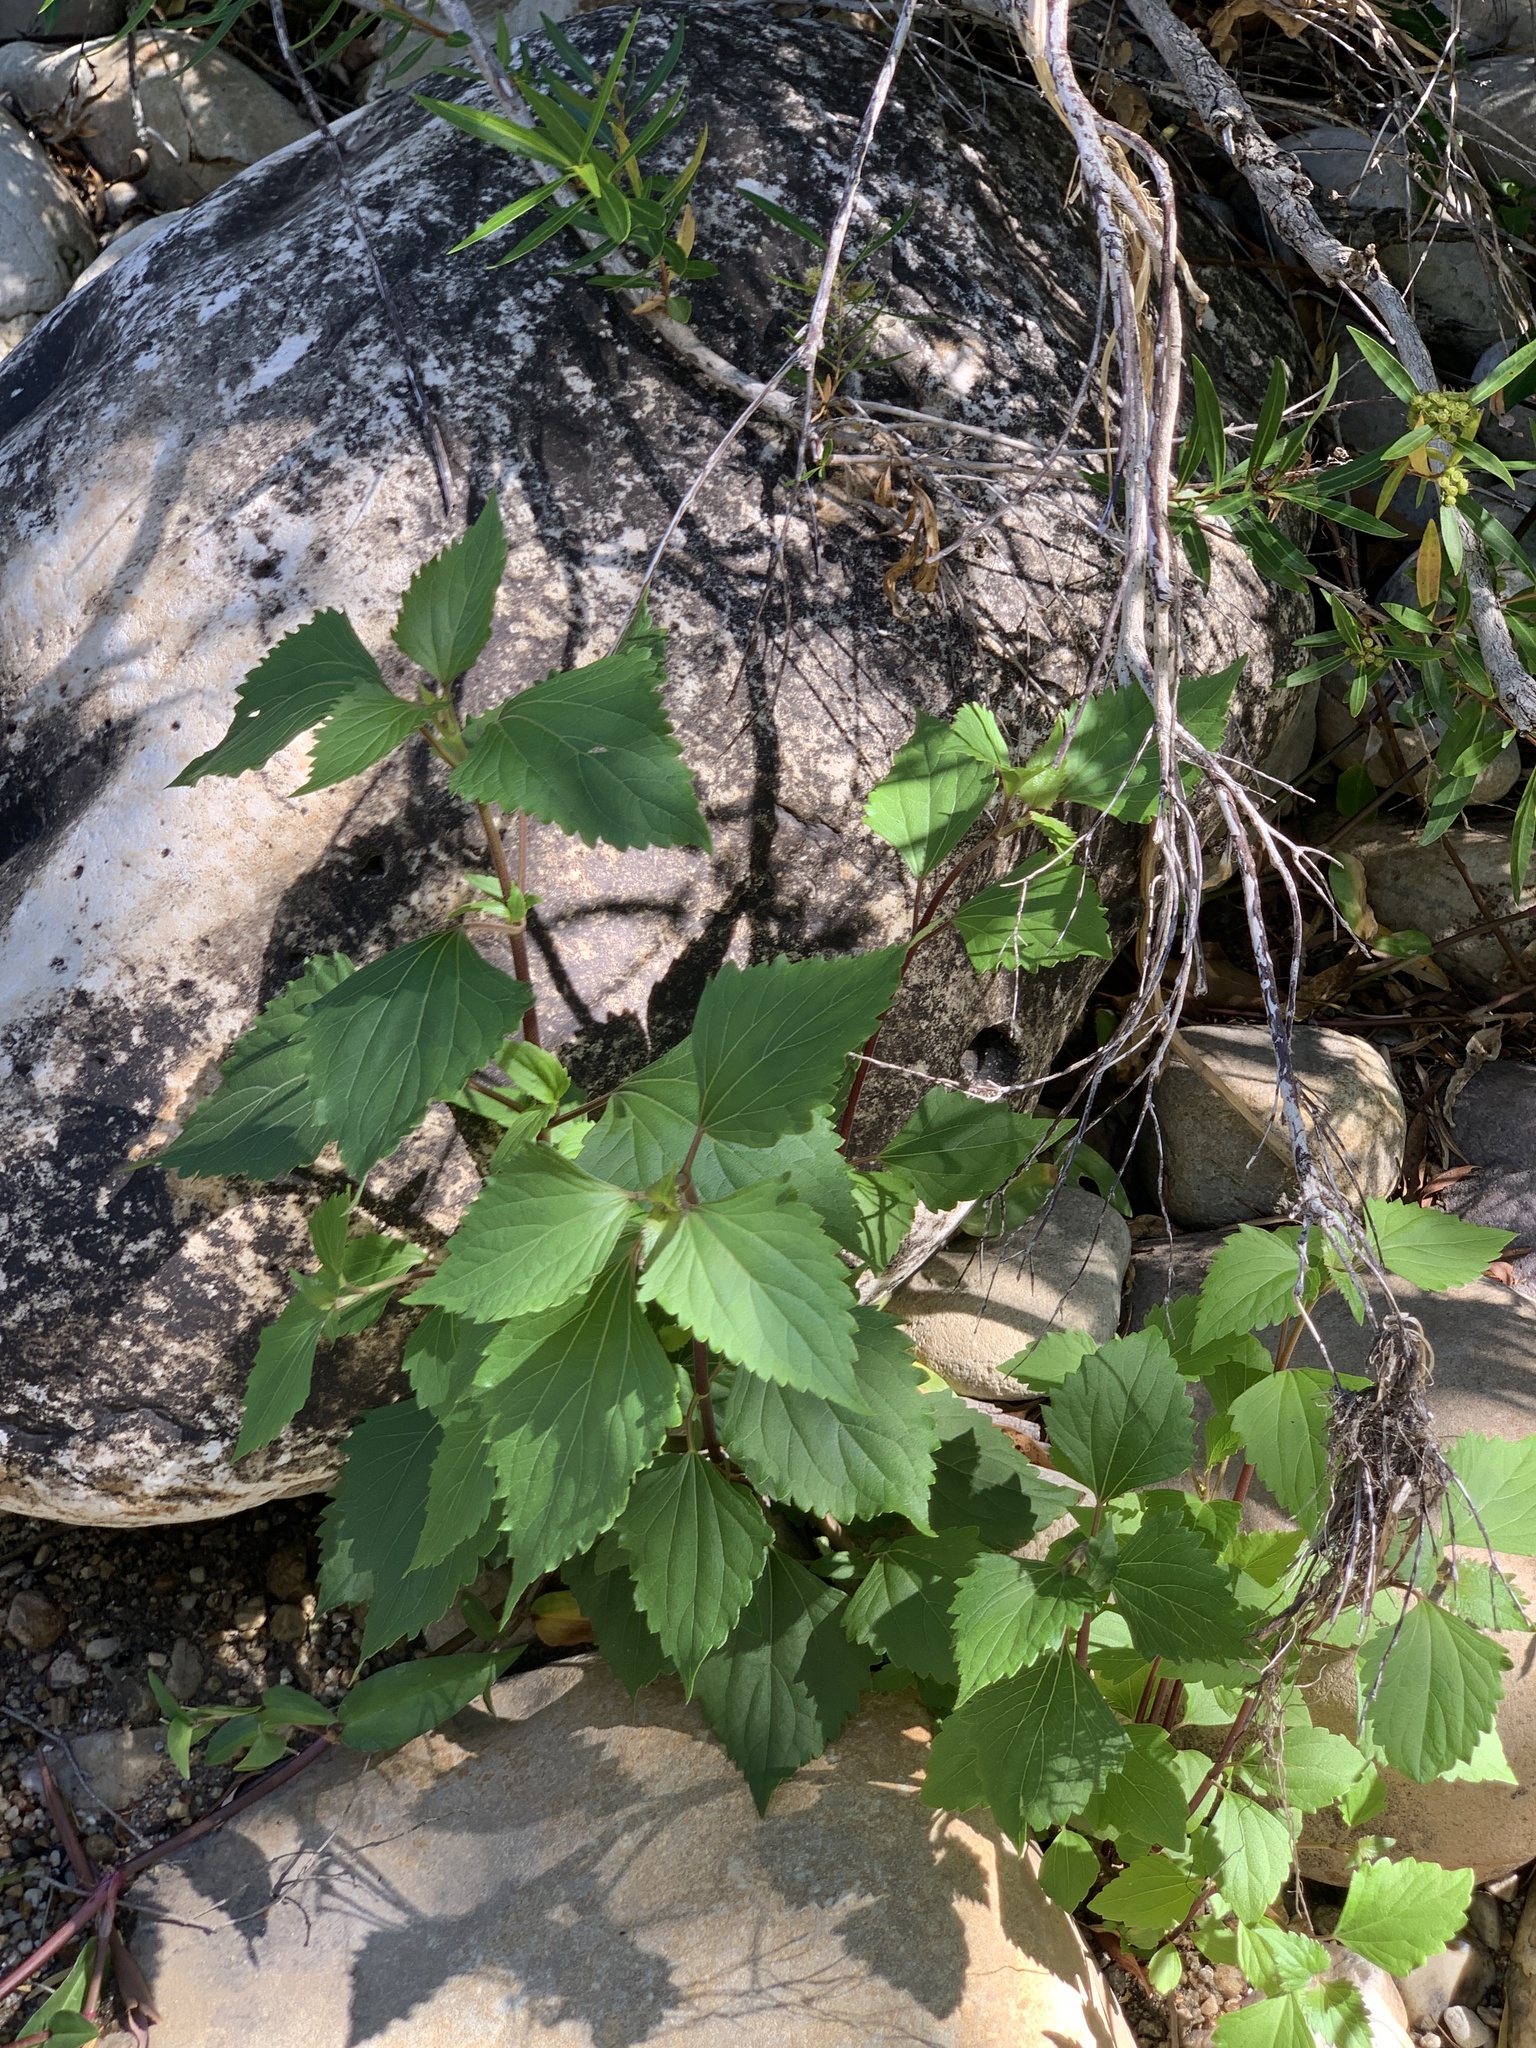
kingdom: Plantae
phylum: Tracheophyta
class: Magnoliopsida
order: Asterales
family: Asteraceae
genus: Ageratina
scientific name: Ageratina adenophora
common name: Sticky snakeroot
